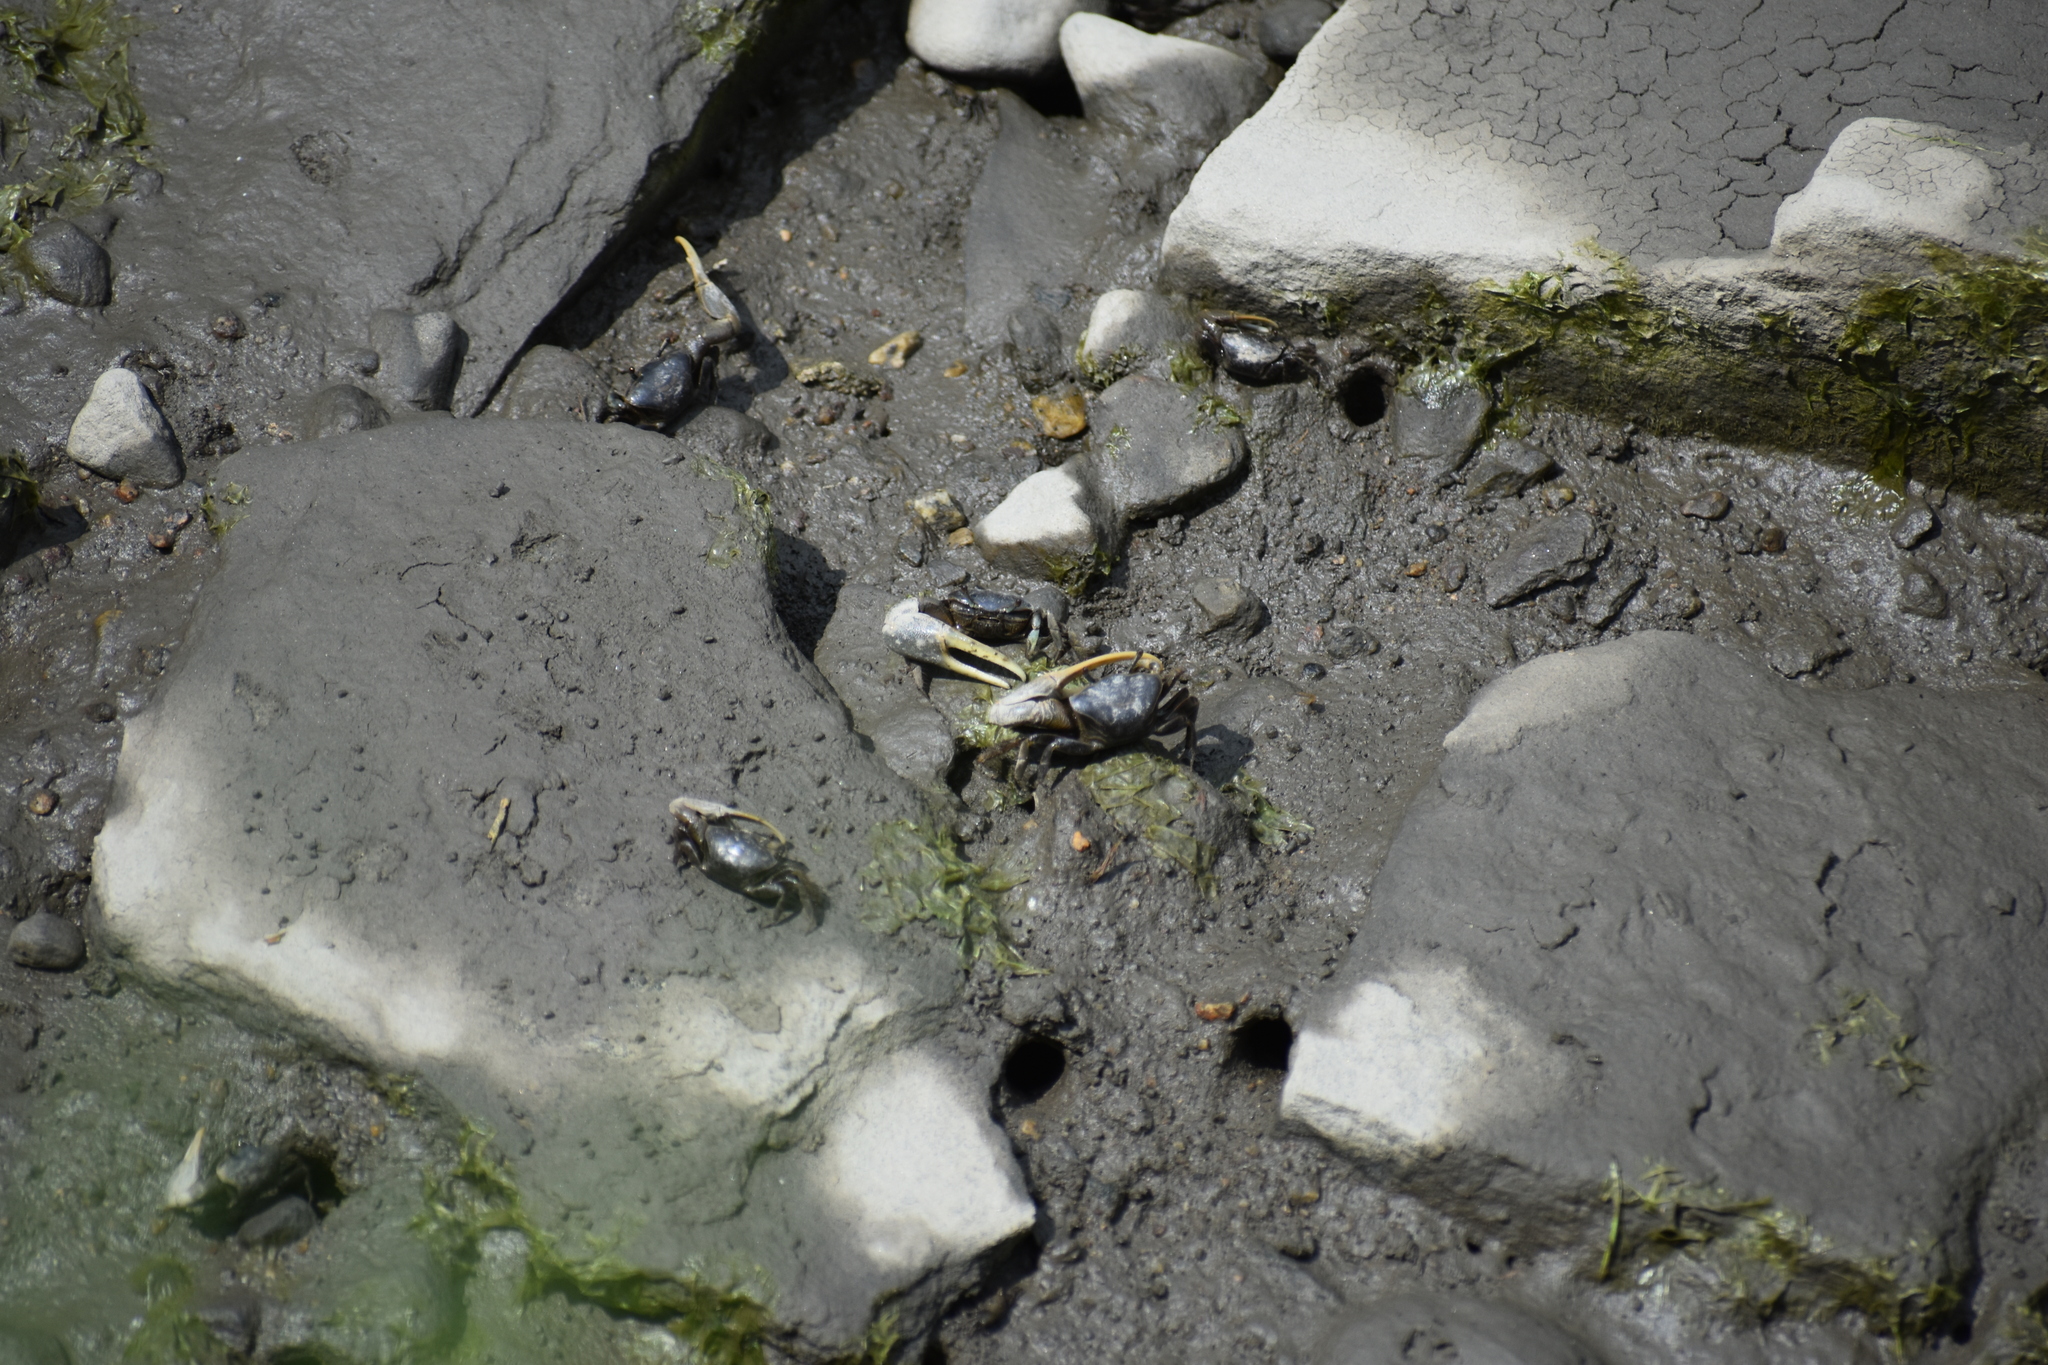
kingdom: Animalia
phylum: Arthropoda
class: Malacostraca
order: Decapoda
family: Ocypodidae
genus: Minuca
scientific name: Minuca pugnax
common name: Mud fiddler crab
